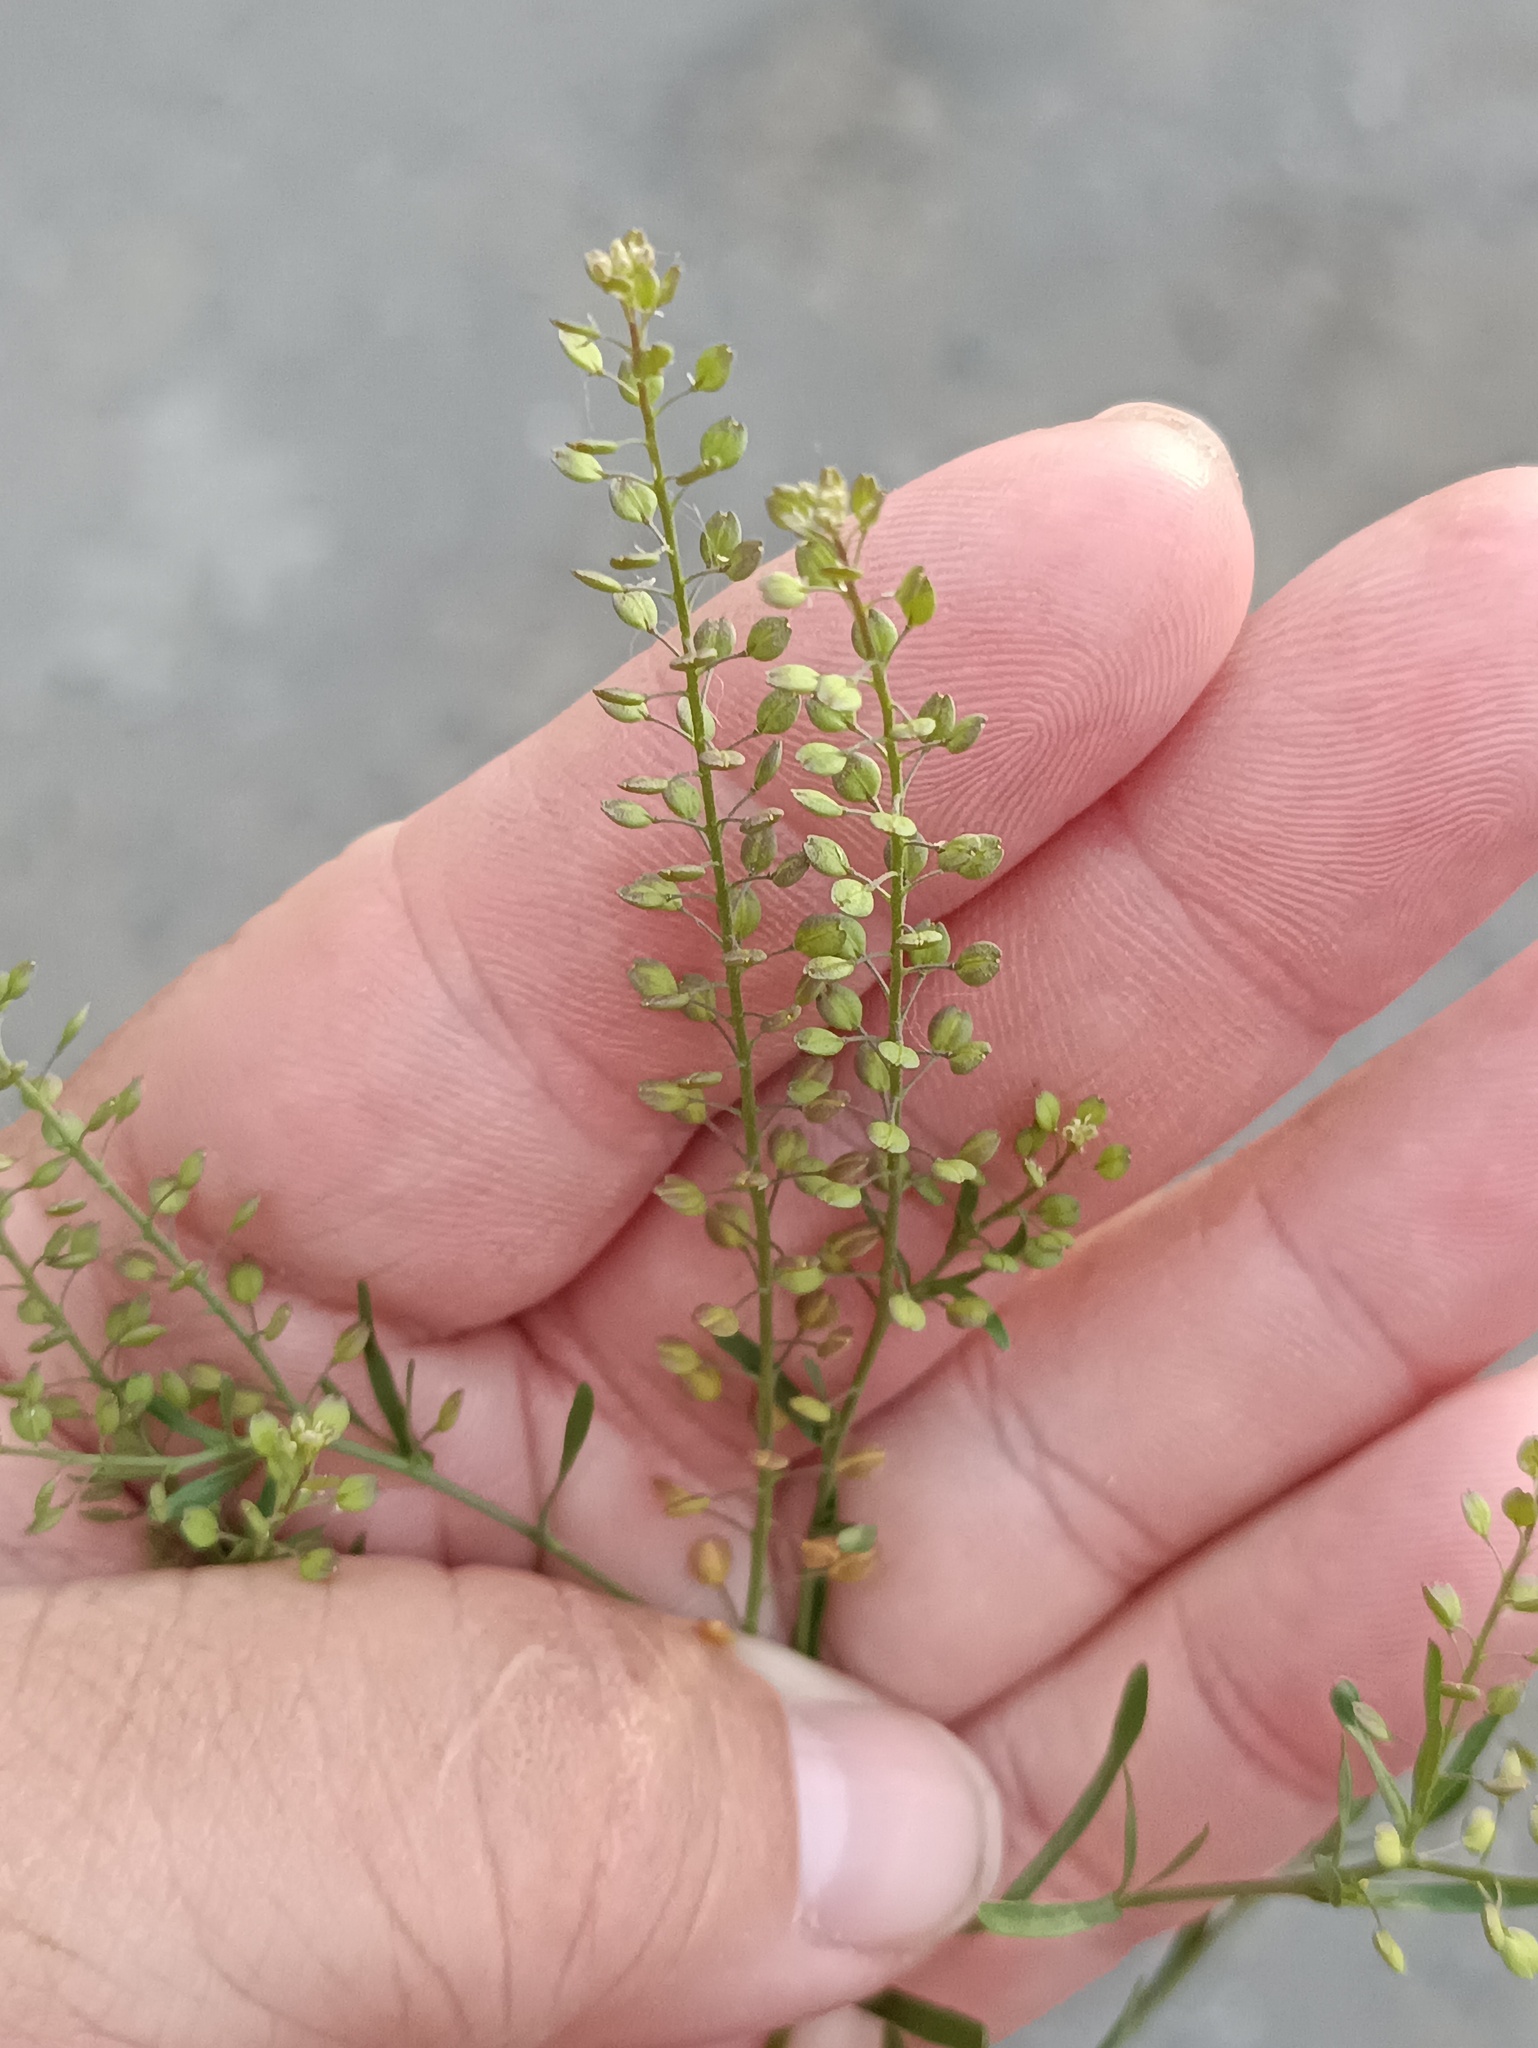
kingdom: Plantae
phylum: Tracheophyta
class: Magnoliopsida
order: Brassicales
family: Brassicaceae
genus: Lepidium
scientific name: Lepidium ruderale
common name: Narrow-leaved pepperwort
